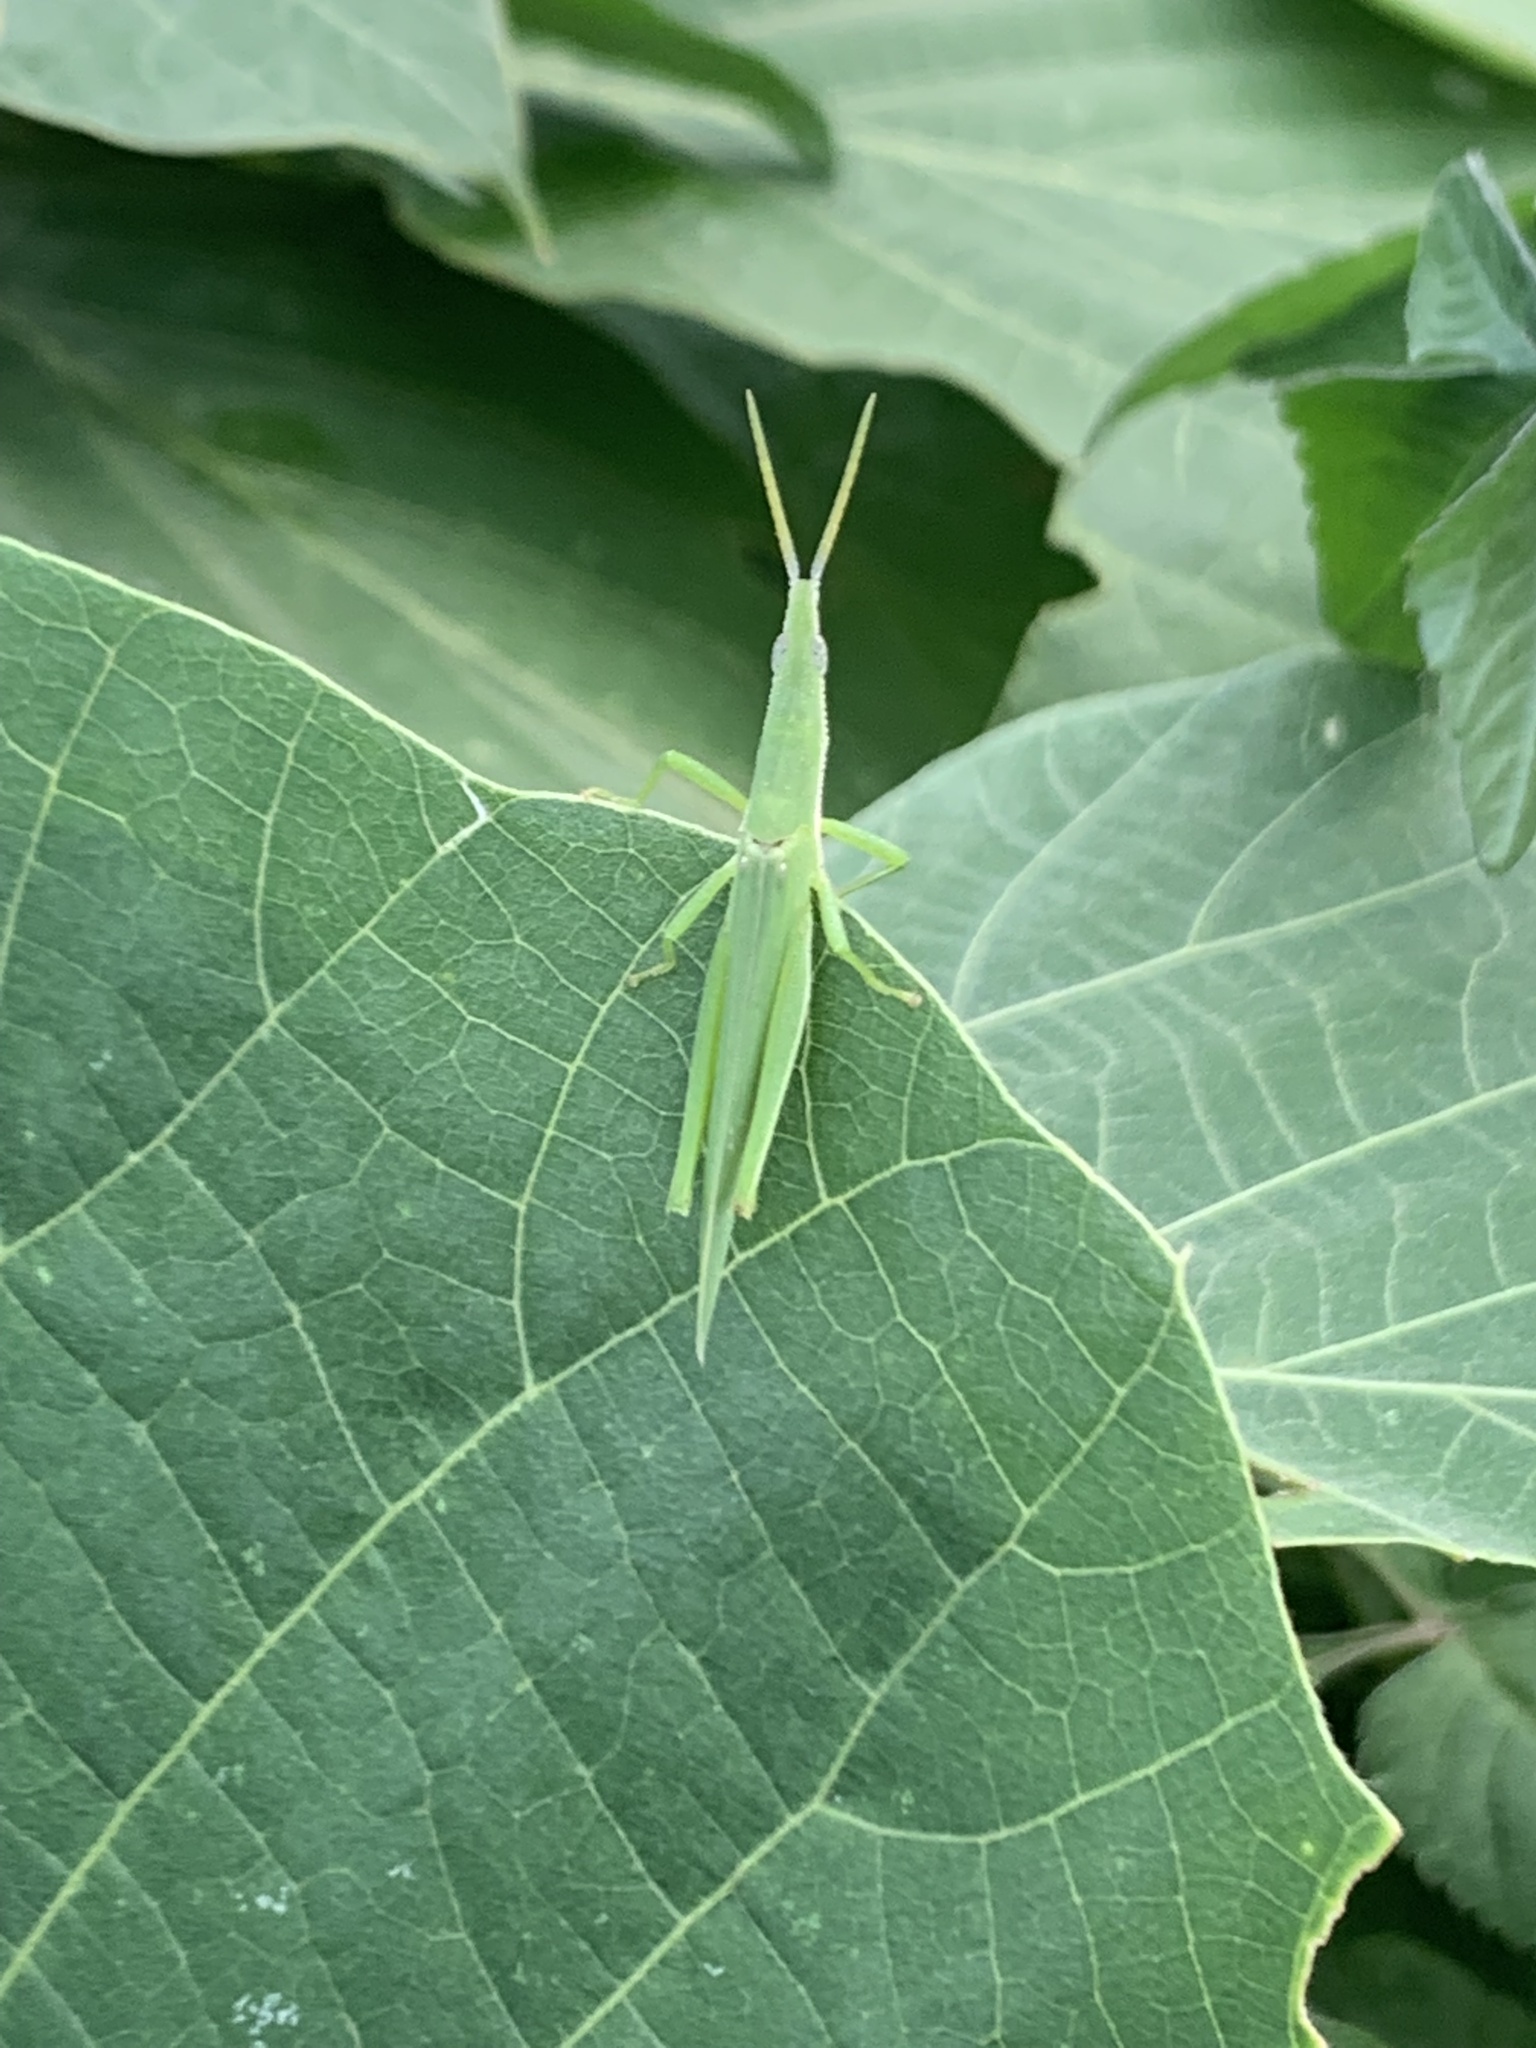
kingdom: Animalia
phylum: Arthropoda
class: Insecta
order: Orthoptera
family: Pyrgomorphidae
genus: Atractomorpha
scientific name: Atractomorpha lata
